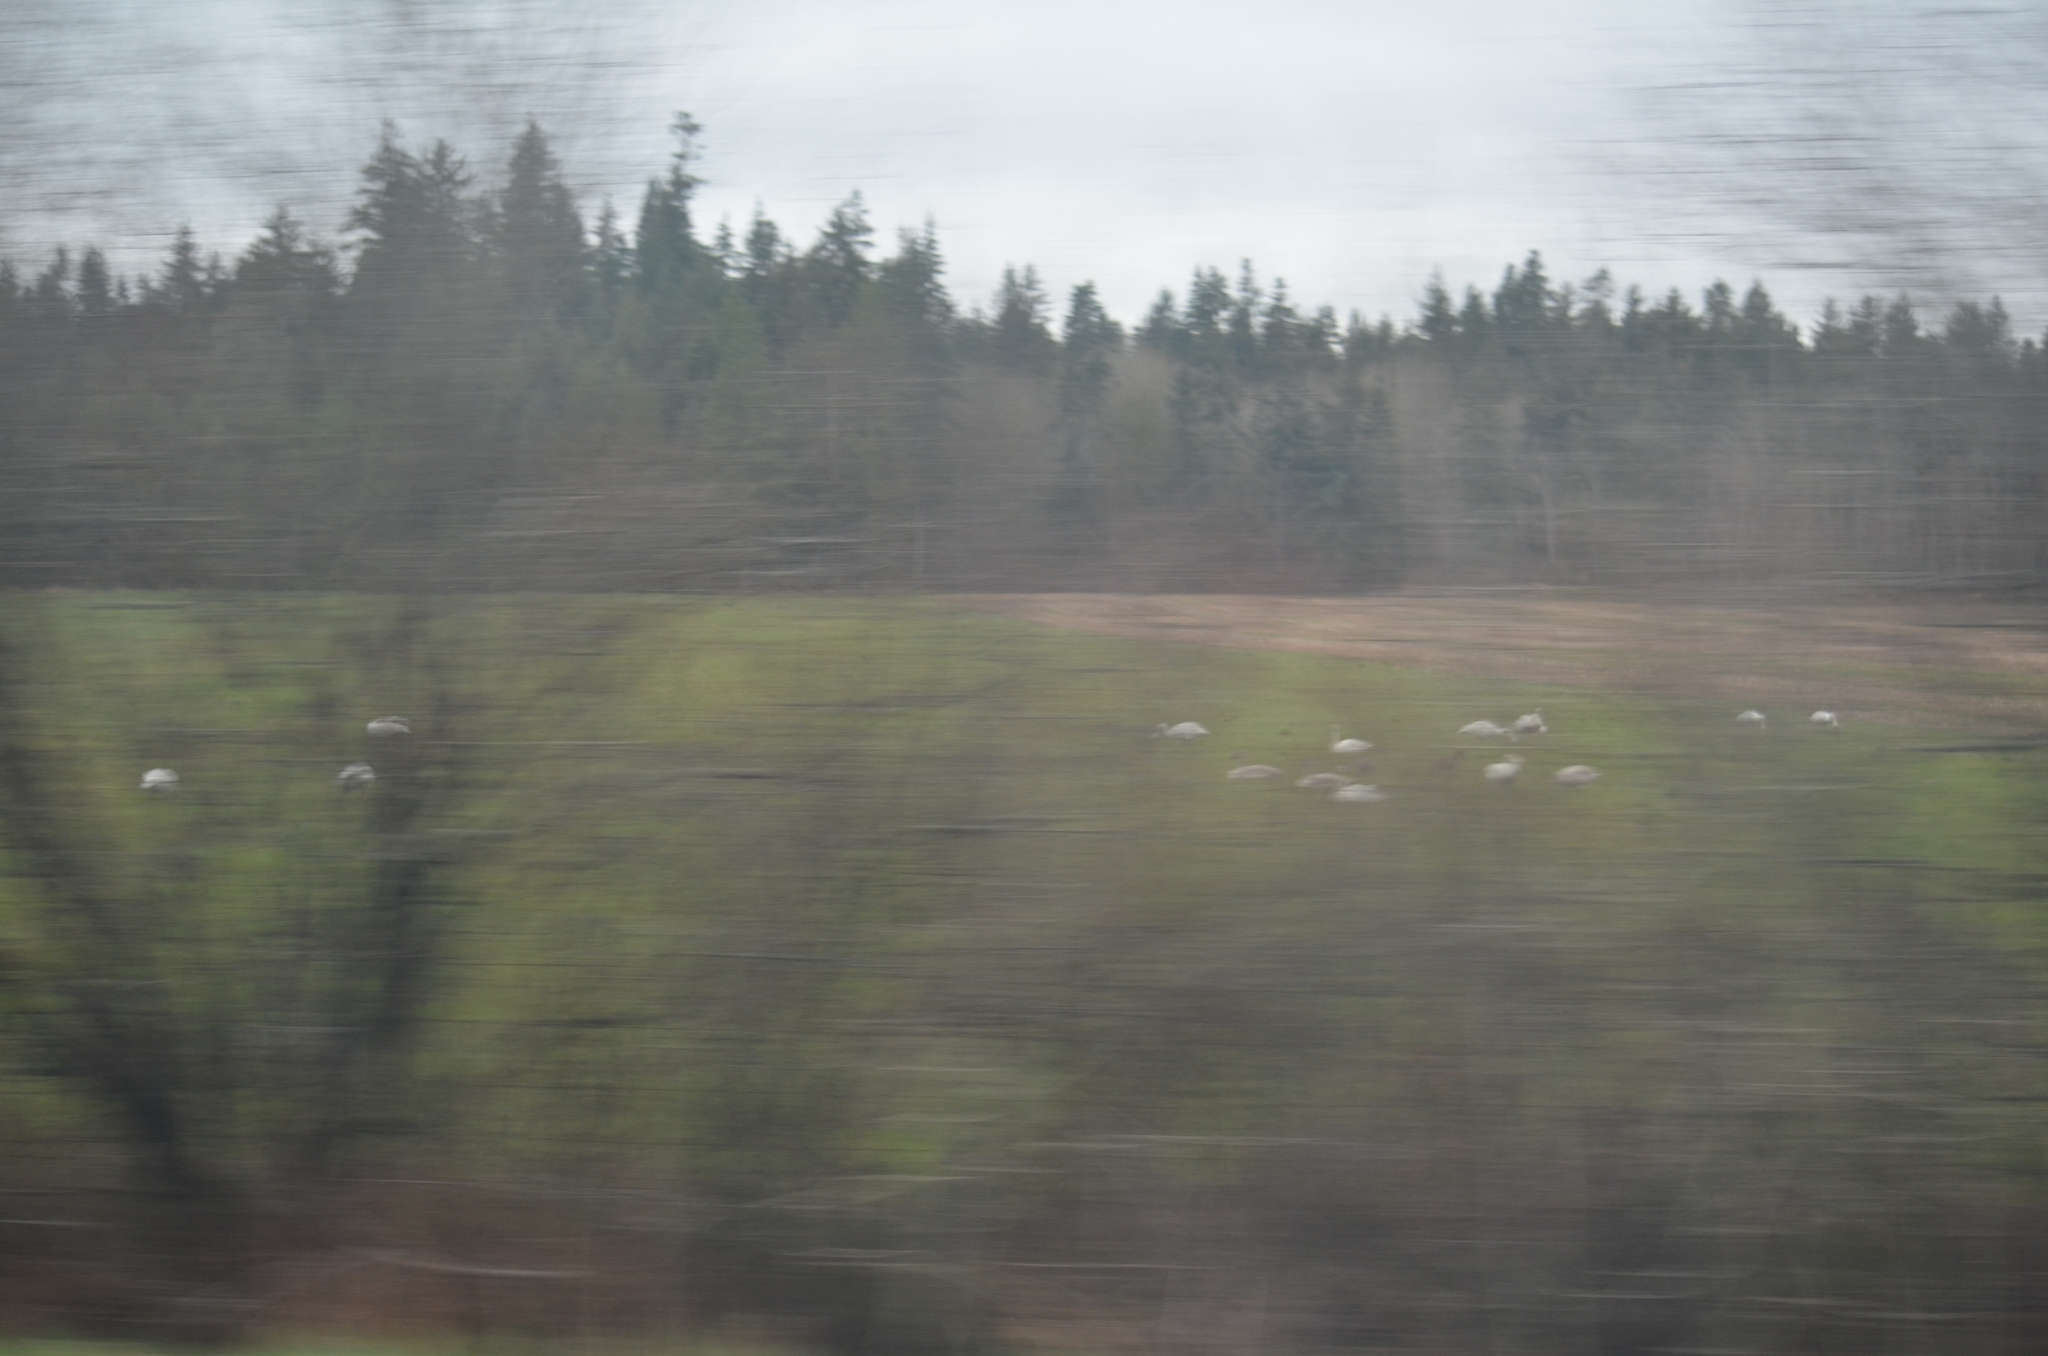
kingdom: Animalia
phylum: Chordata
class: Aves
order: Anseriformes
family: Anatidae
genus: Cygnus
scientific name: Cygnus buccinator
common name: Trumpeter swan
